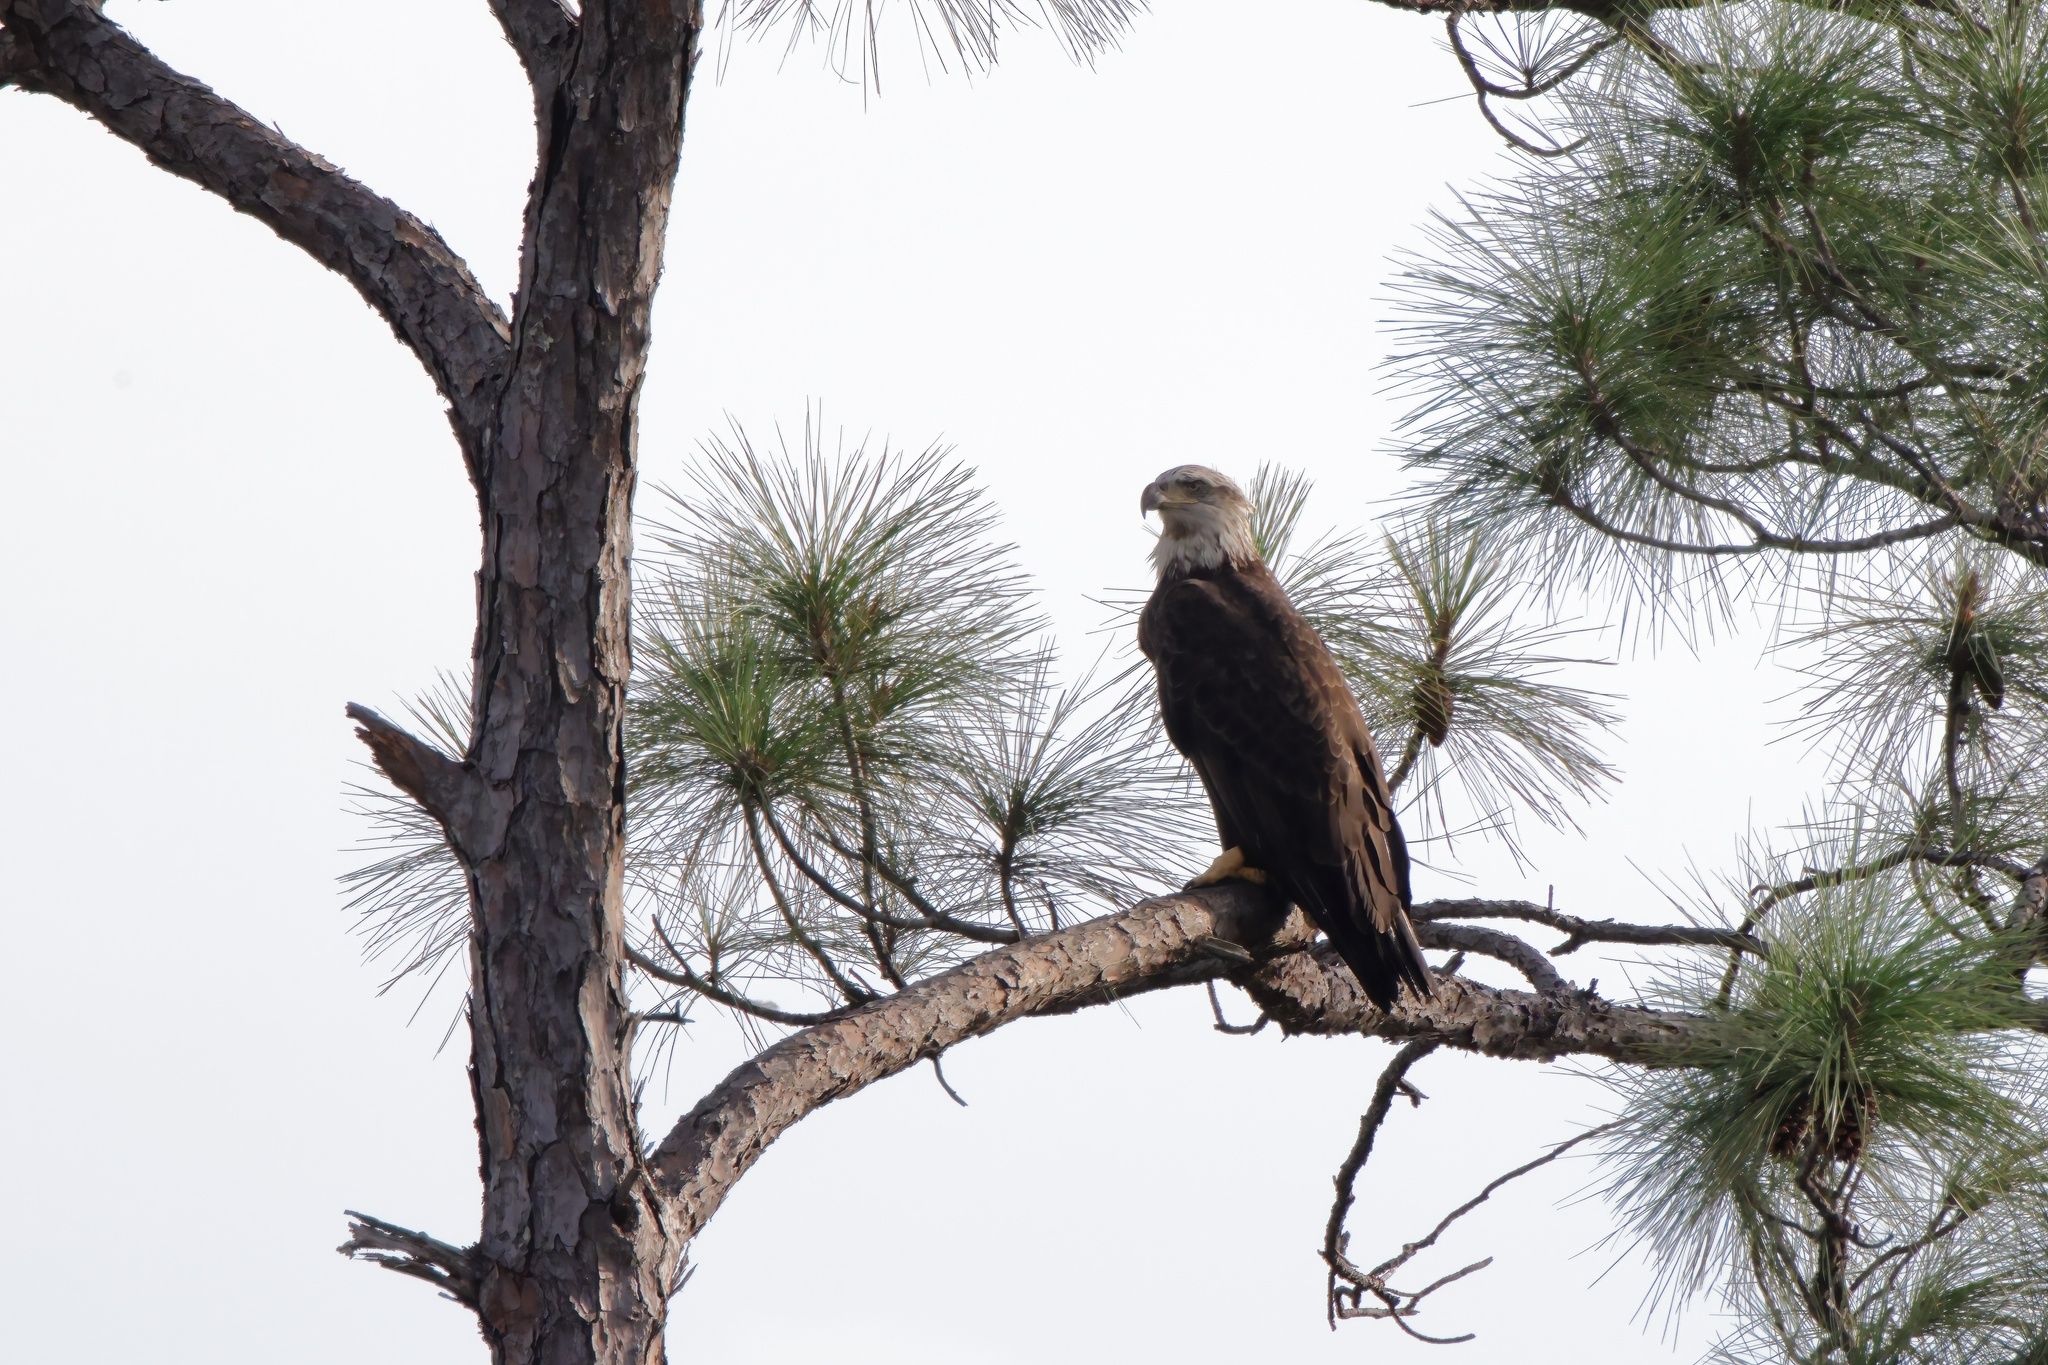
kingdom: Animalia
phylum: Chordata
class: Aves
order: Accipitriformes
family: Accipitridae
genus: Haliaeetus
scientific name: Haliaeetus leucocephalus
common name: Bald eagle
